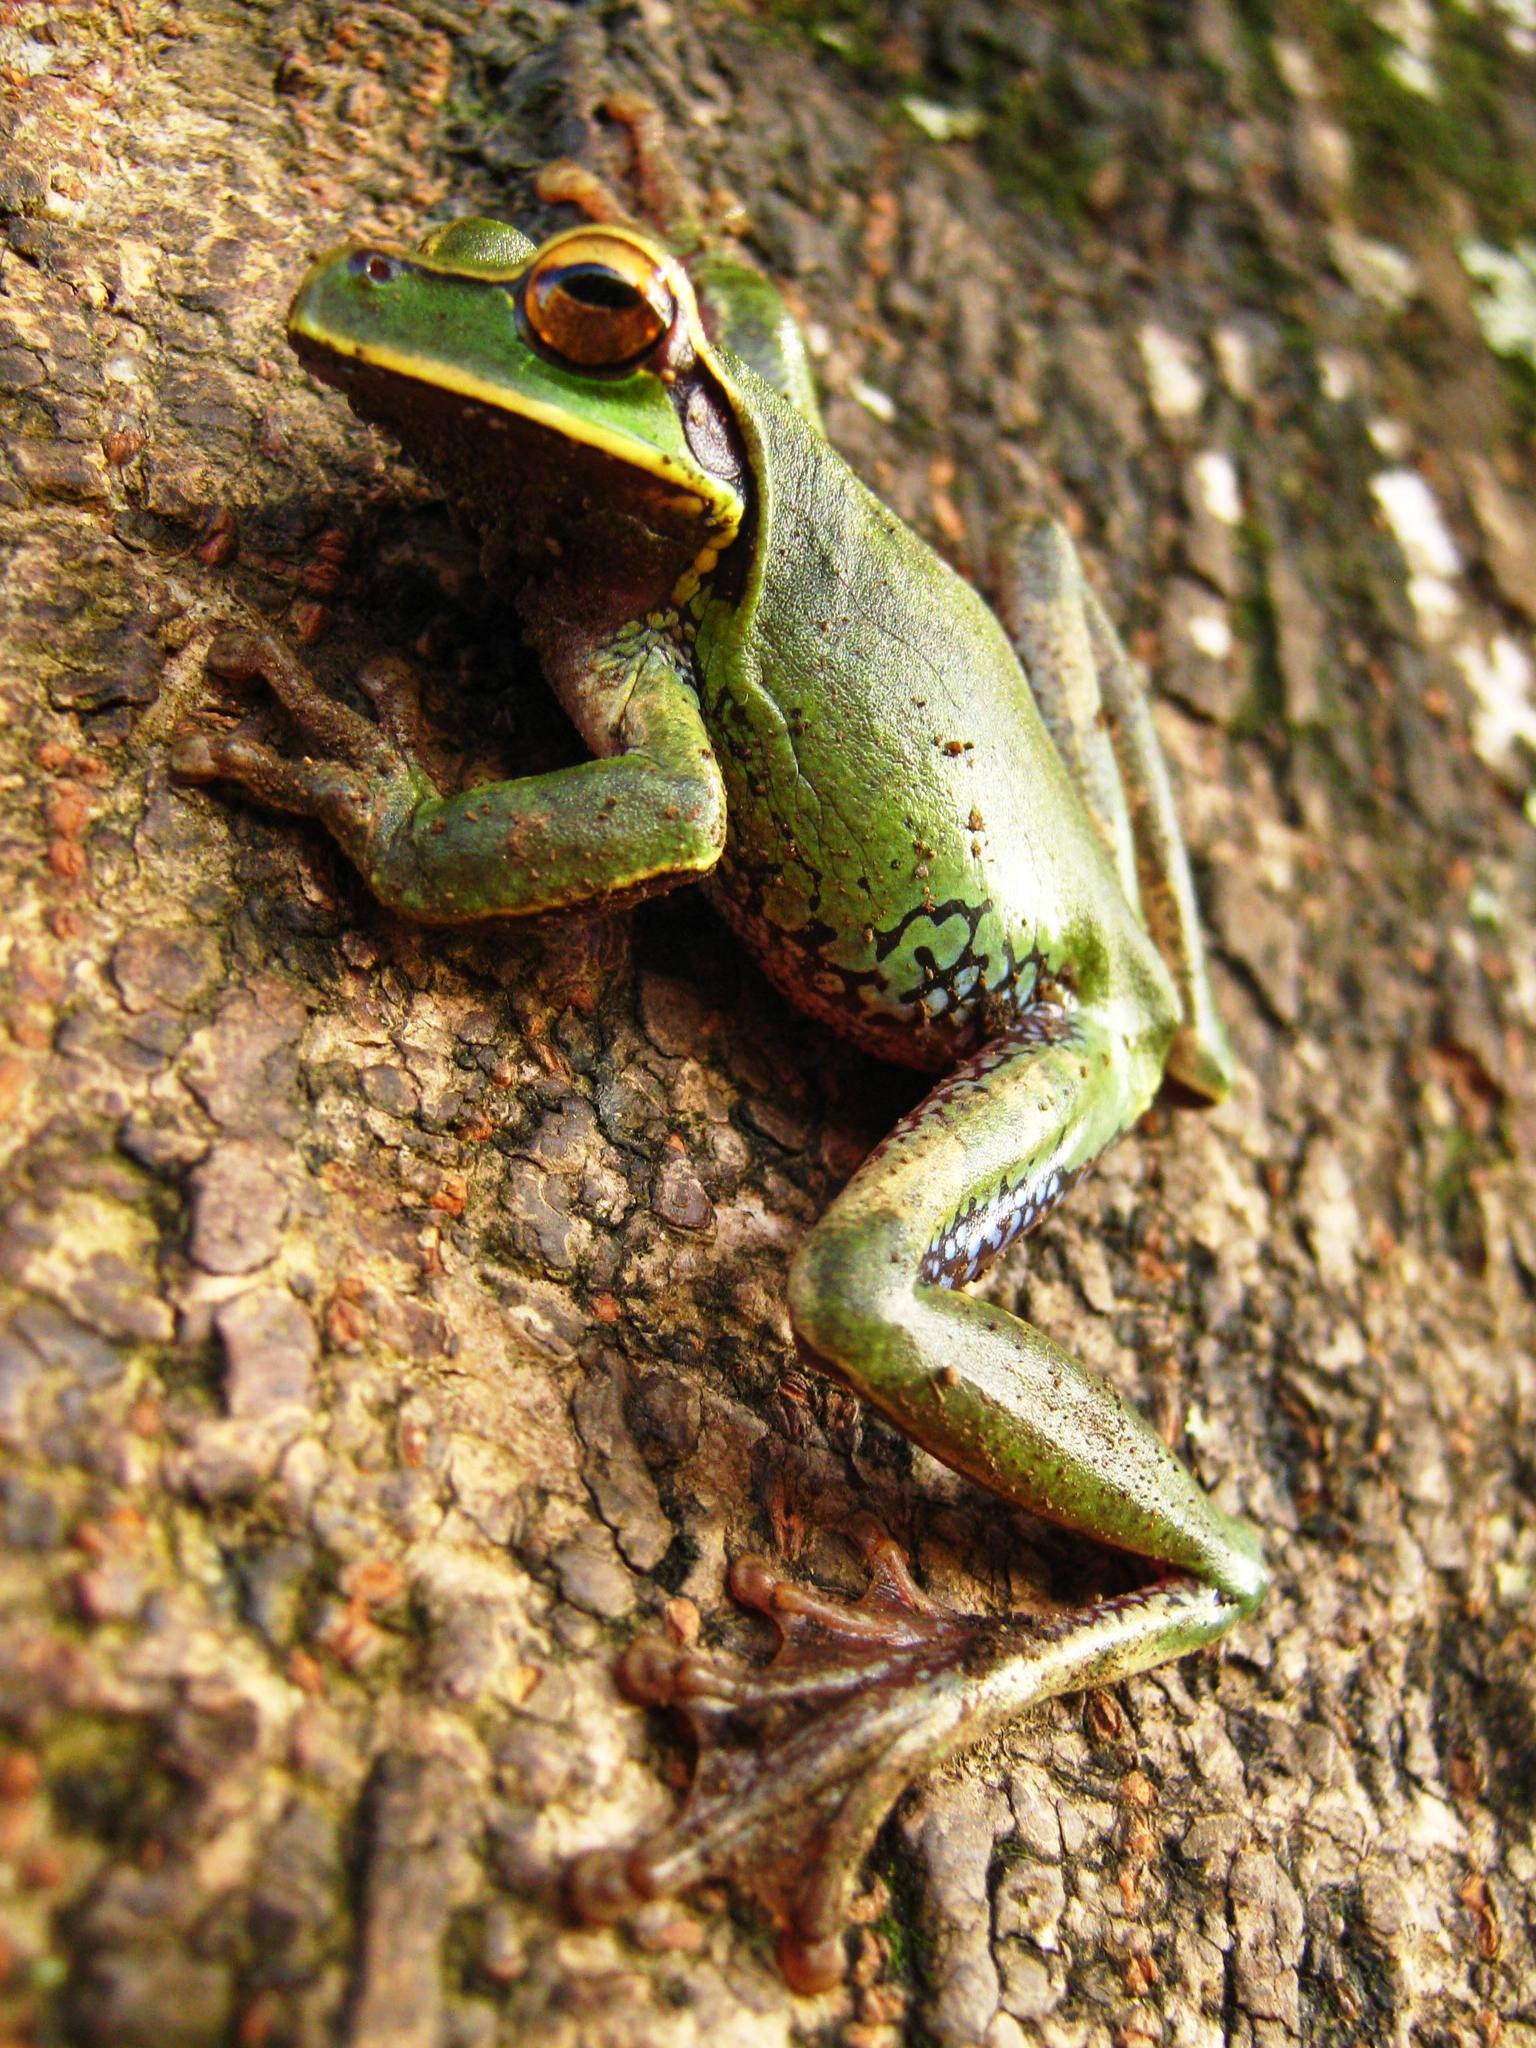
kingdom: Animalia
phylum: Chordata
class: Amphibia
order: Anura
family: Hylidae
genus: Smilisca
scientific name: Smilisca cyanosticta
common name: Blue-spotted mexican treefrog
